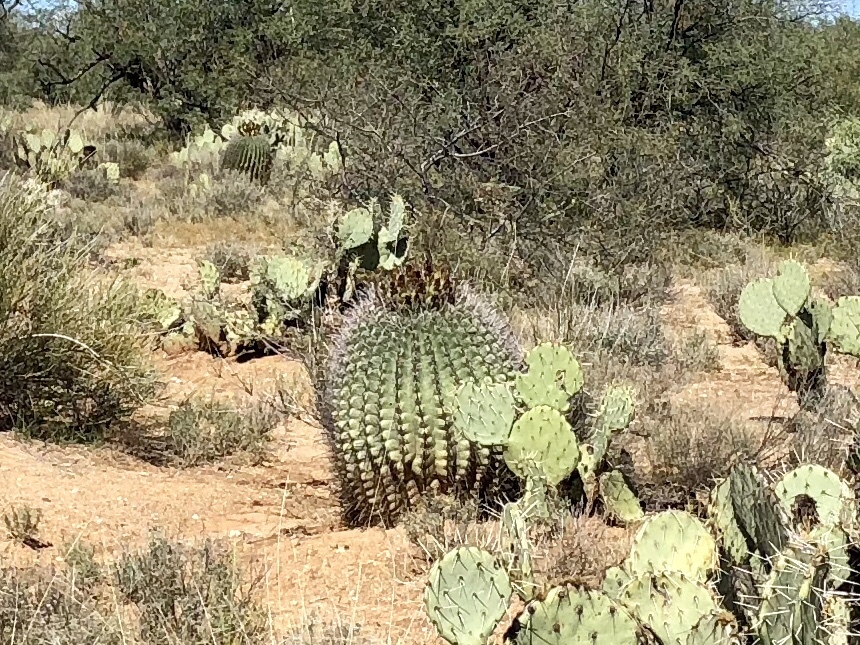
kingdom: Plantae
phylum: Tracheophyta
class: Magnoliopsida
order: Caryophyllales
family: Cactaceae
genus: Ferocactus
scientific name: Ferocactus wislizeni
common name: Candy barrel cactus
